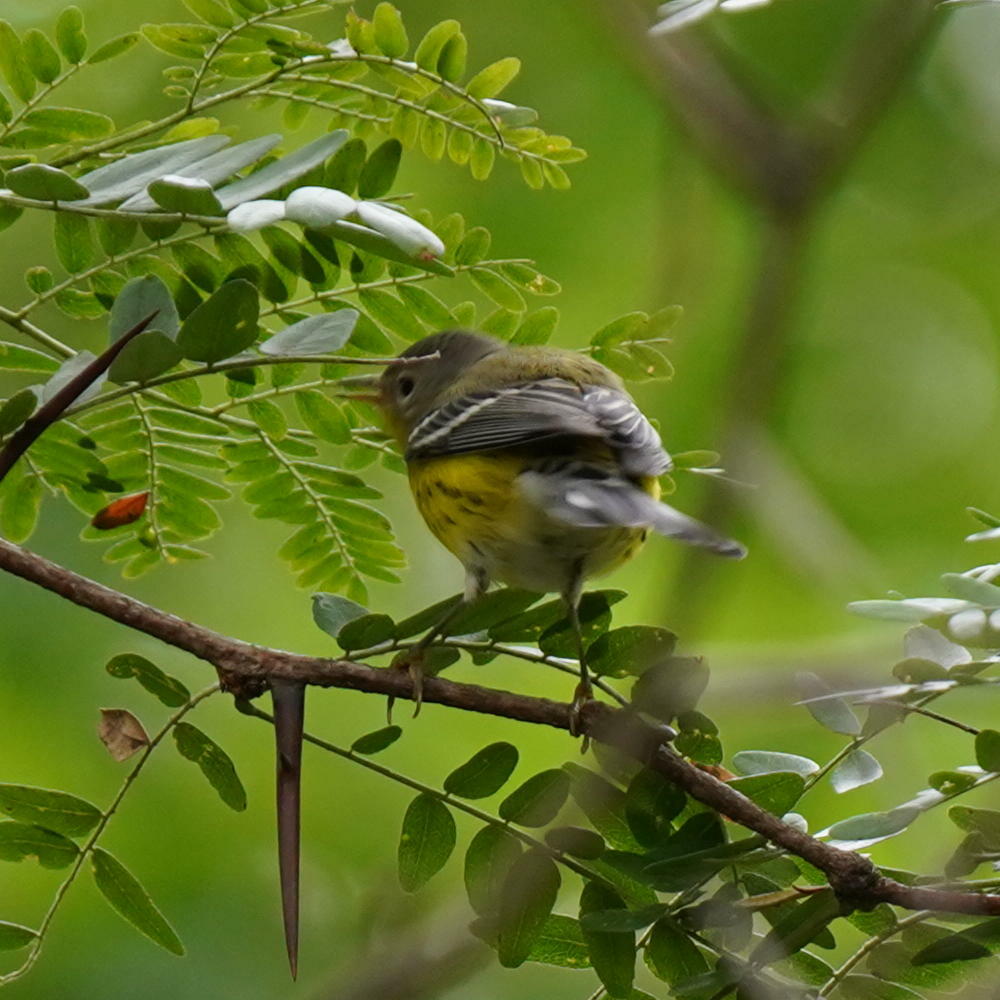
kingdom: Animalia
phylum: Chordata
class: Aves
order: Passeriformes
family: Parulidae
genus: Setophaga
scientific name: Setophaga magnolia
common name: Magnolia warbler
